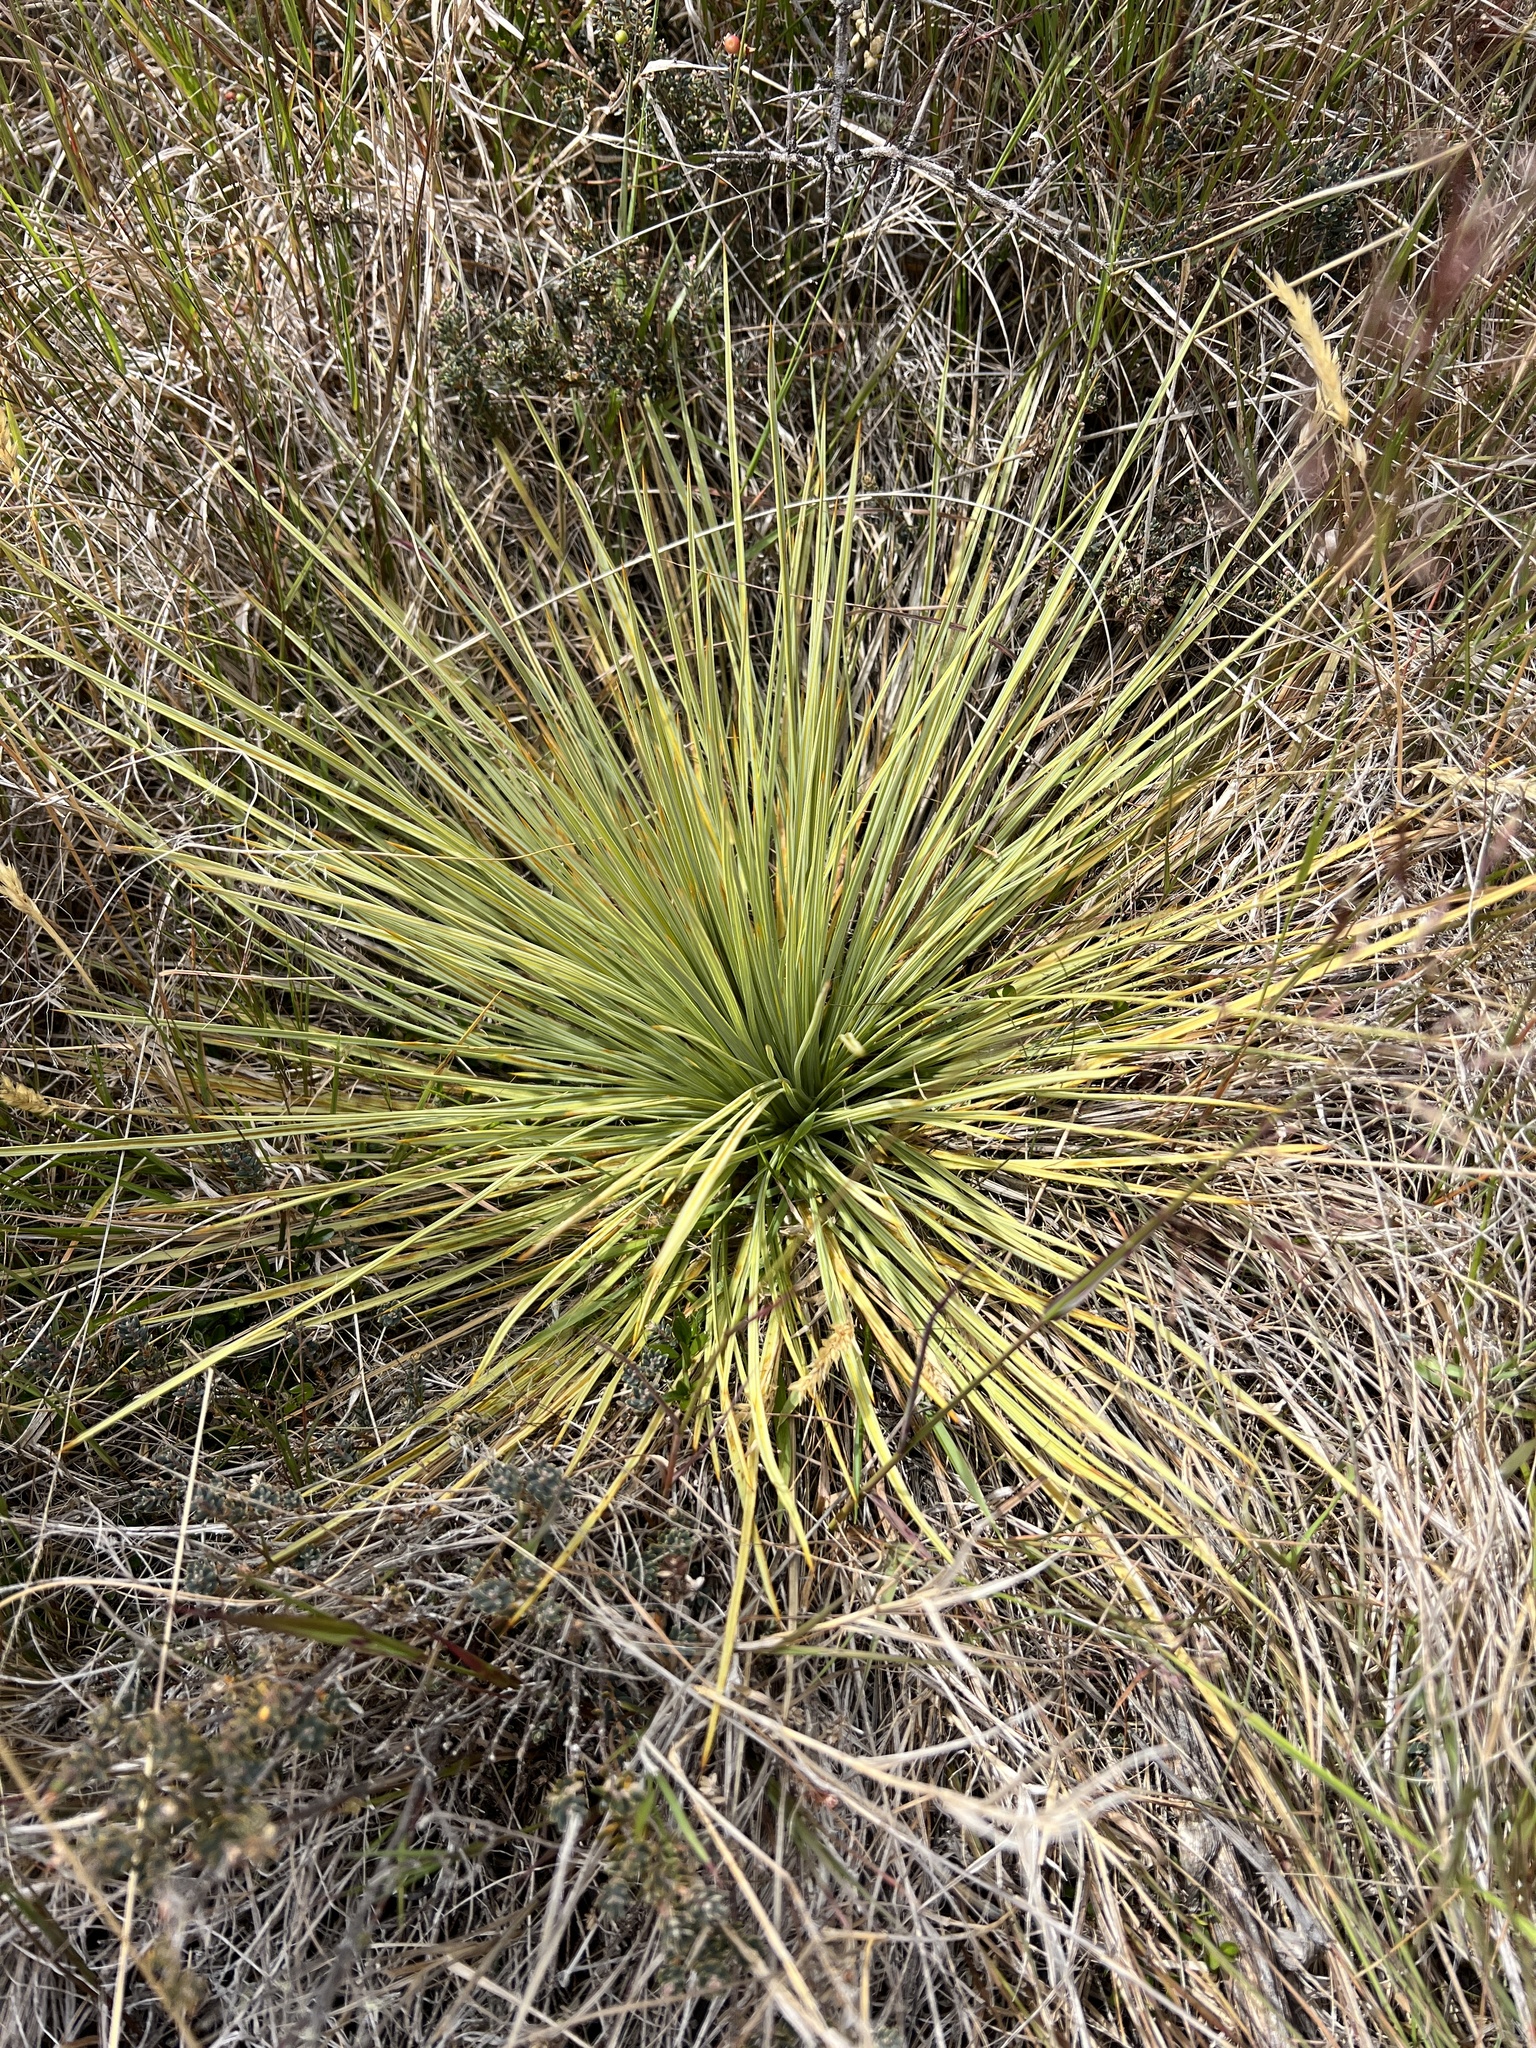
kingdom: Plantae
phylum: Tracheophyta
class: Magnoliopsida
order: Apiales
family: Apiaceae
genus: Aciphylla
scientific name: Aciphylla subflabellata
